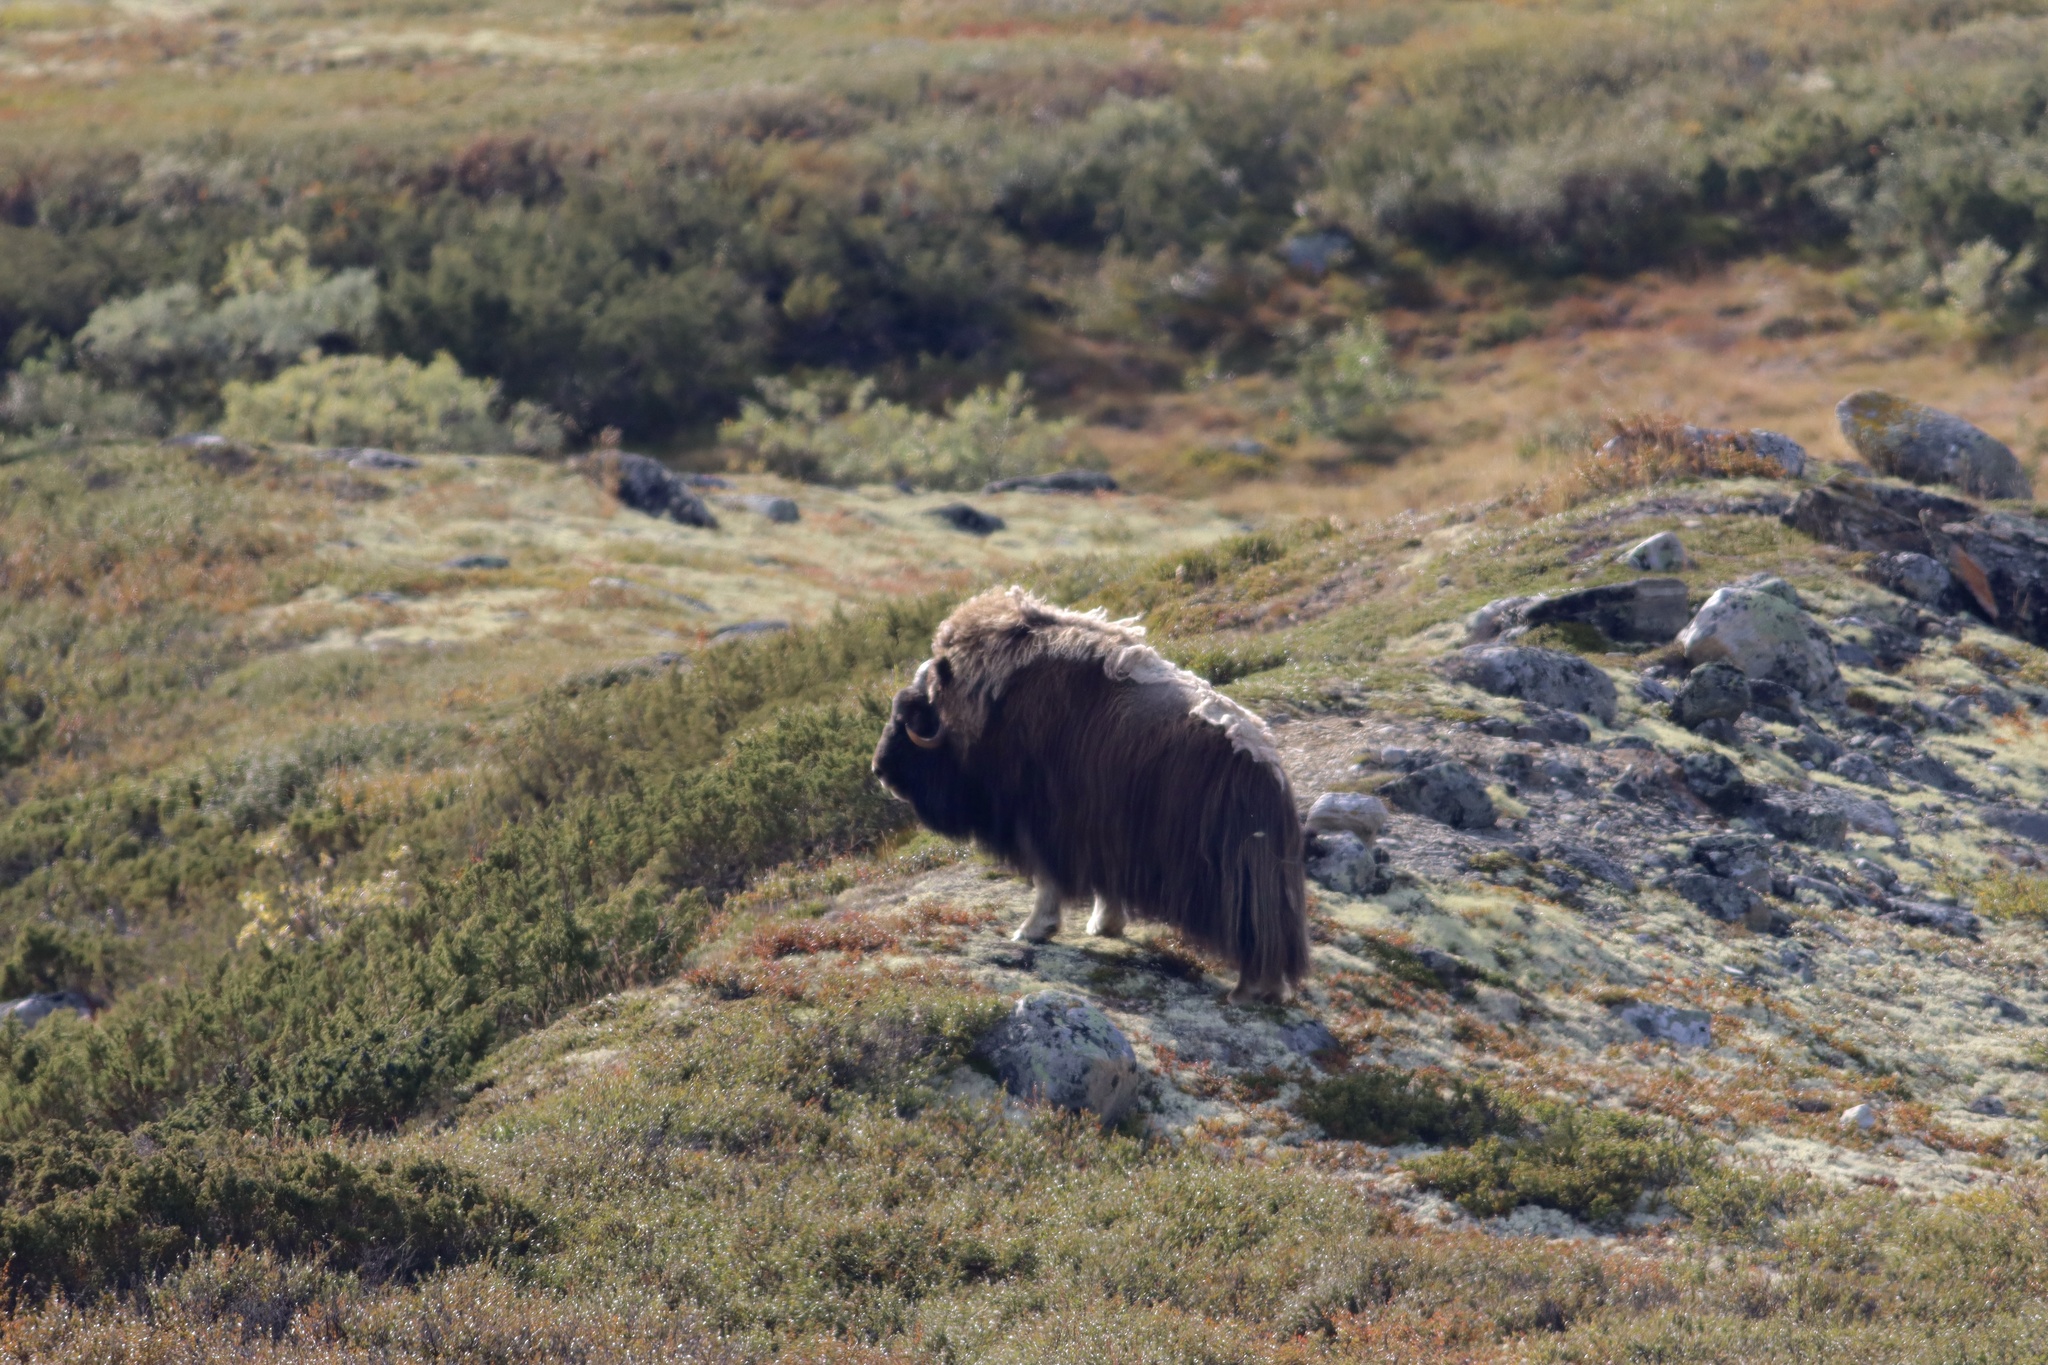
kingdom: Animalia
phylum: Chordata
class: Mammalia
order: Artiodactyla
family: Bovidae
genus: Ovibos
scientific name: Ovibos moschatus
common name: Muskox
